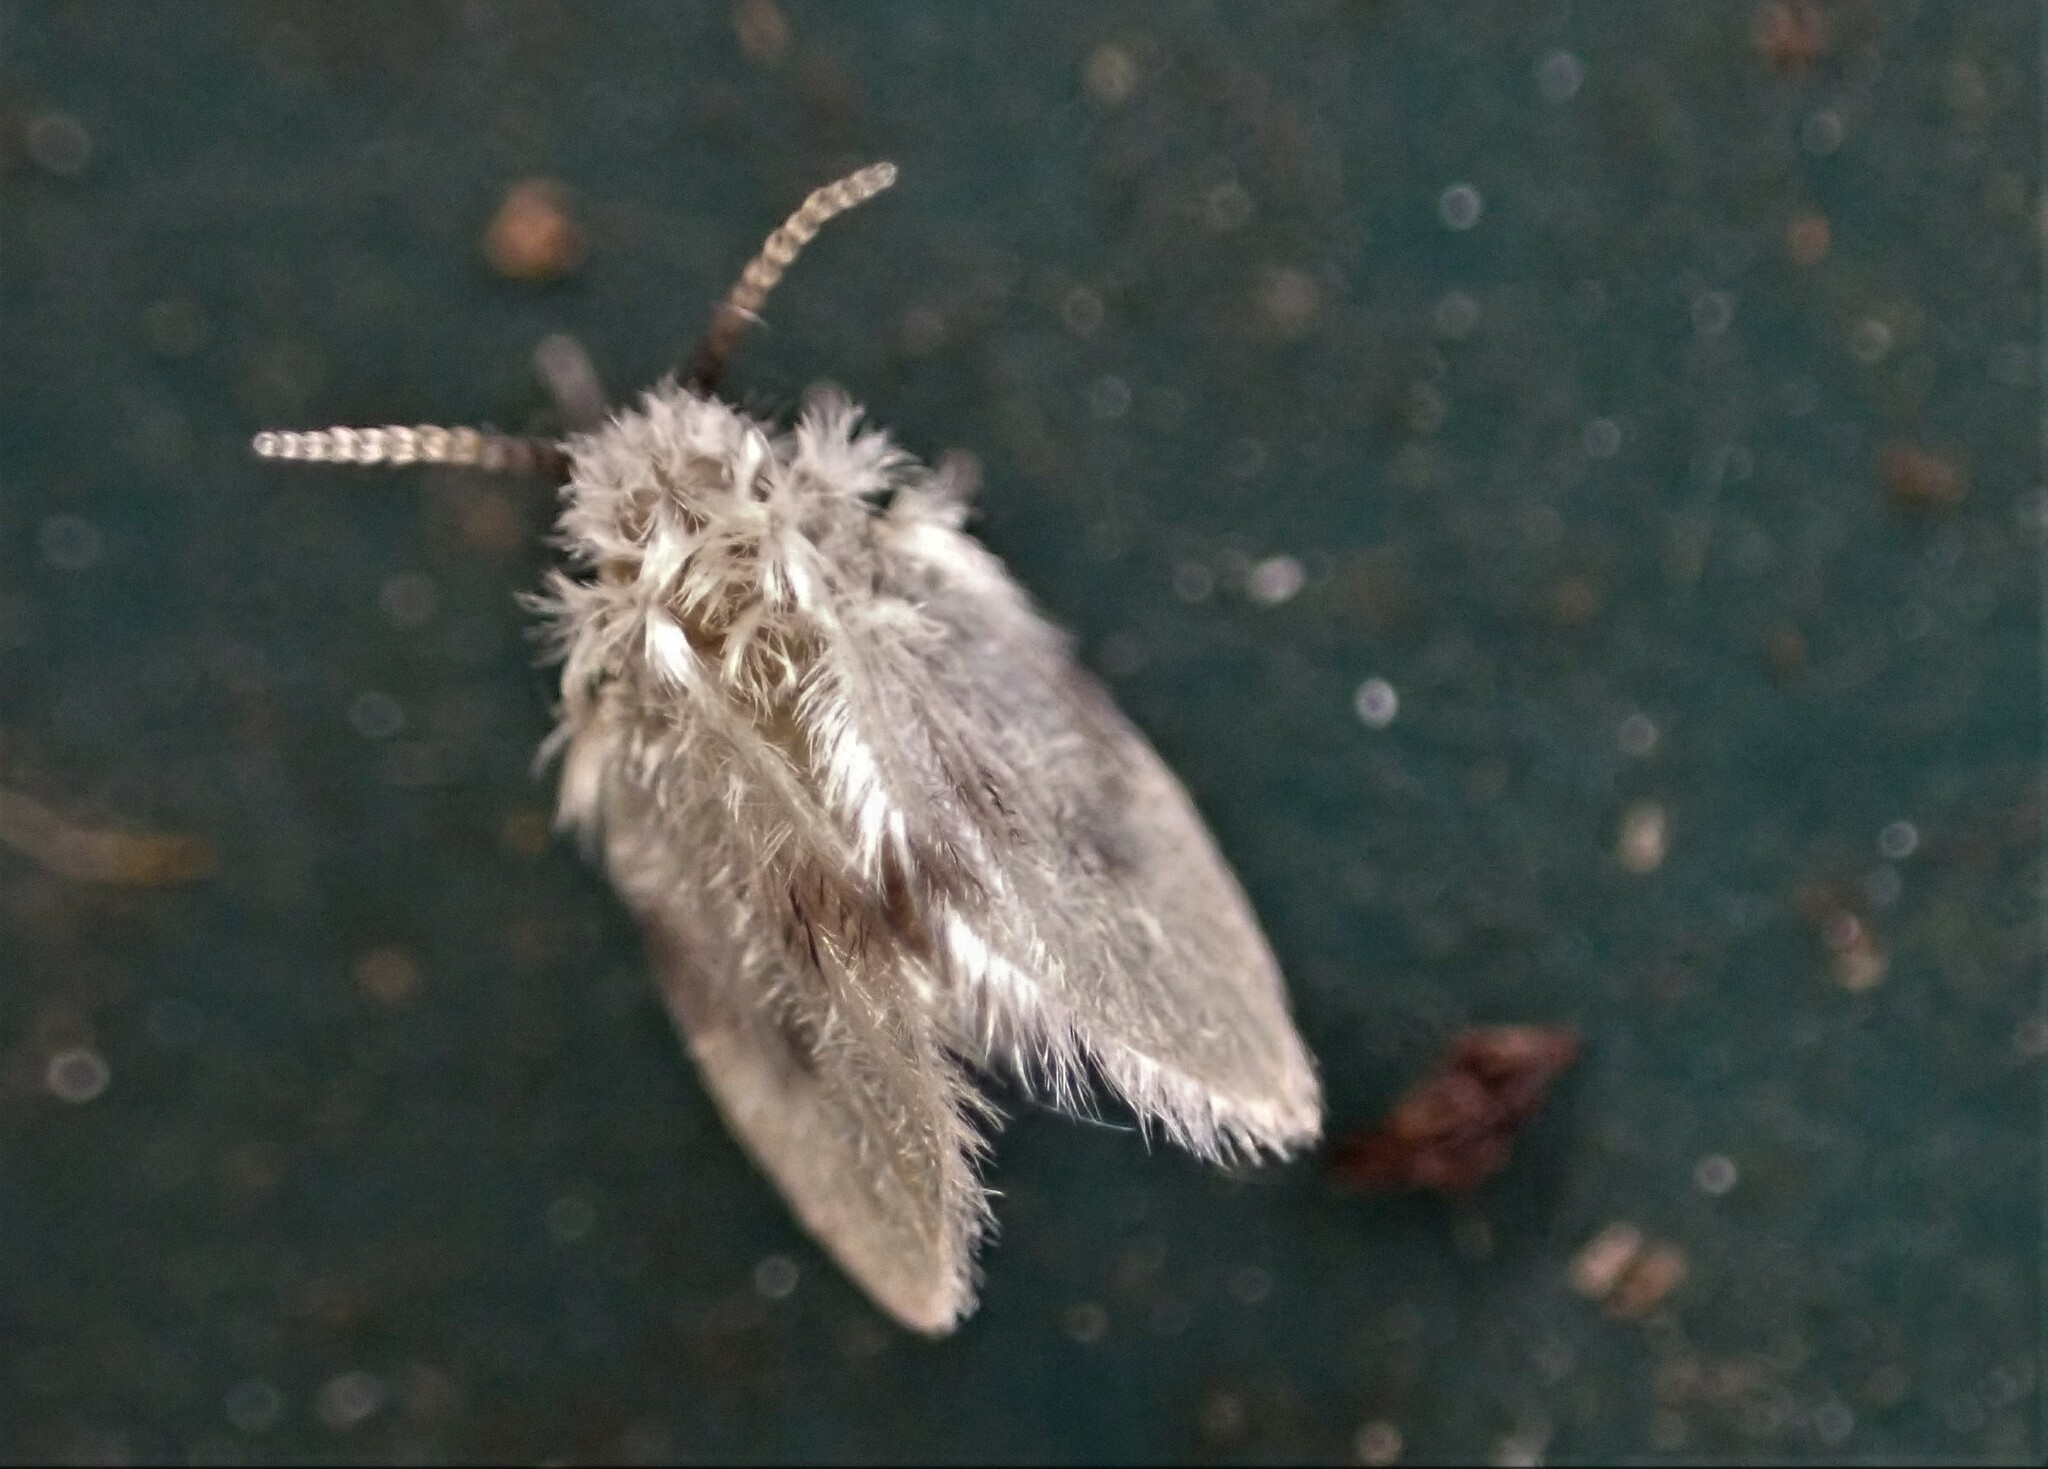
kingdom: Animalia
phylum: Arthropoda
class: Insecta
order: Diptera
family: Psychodidae
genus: Psychoda
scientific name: Psychoda sigma
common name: Moth fly
